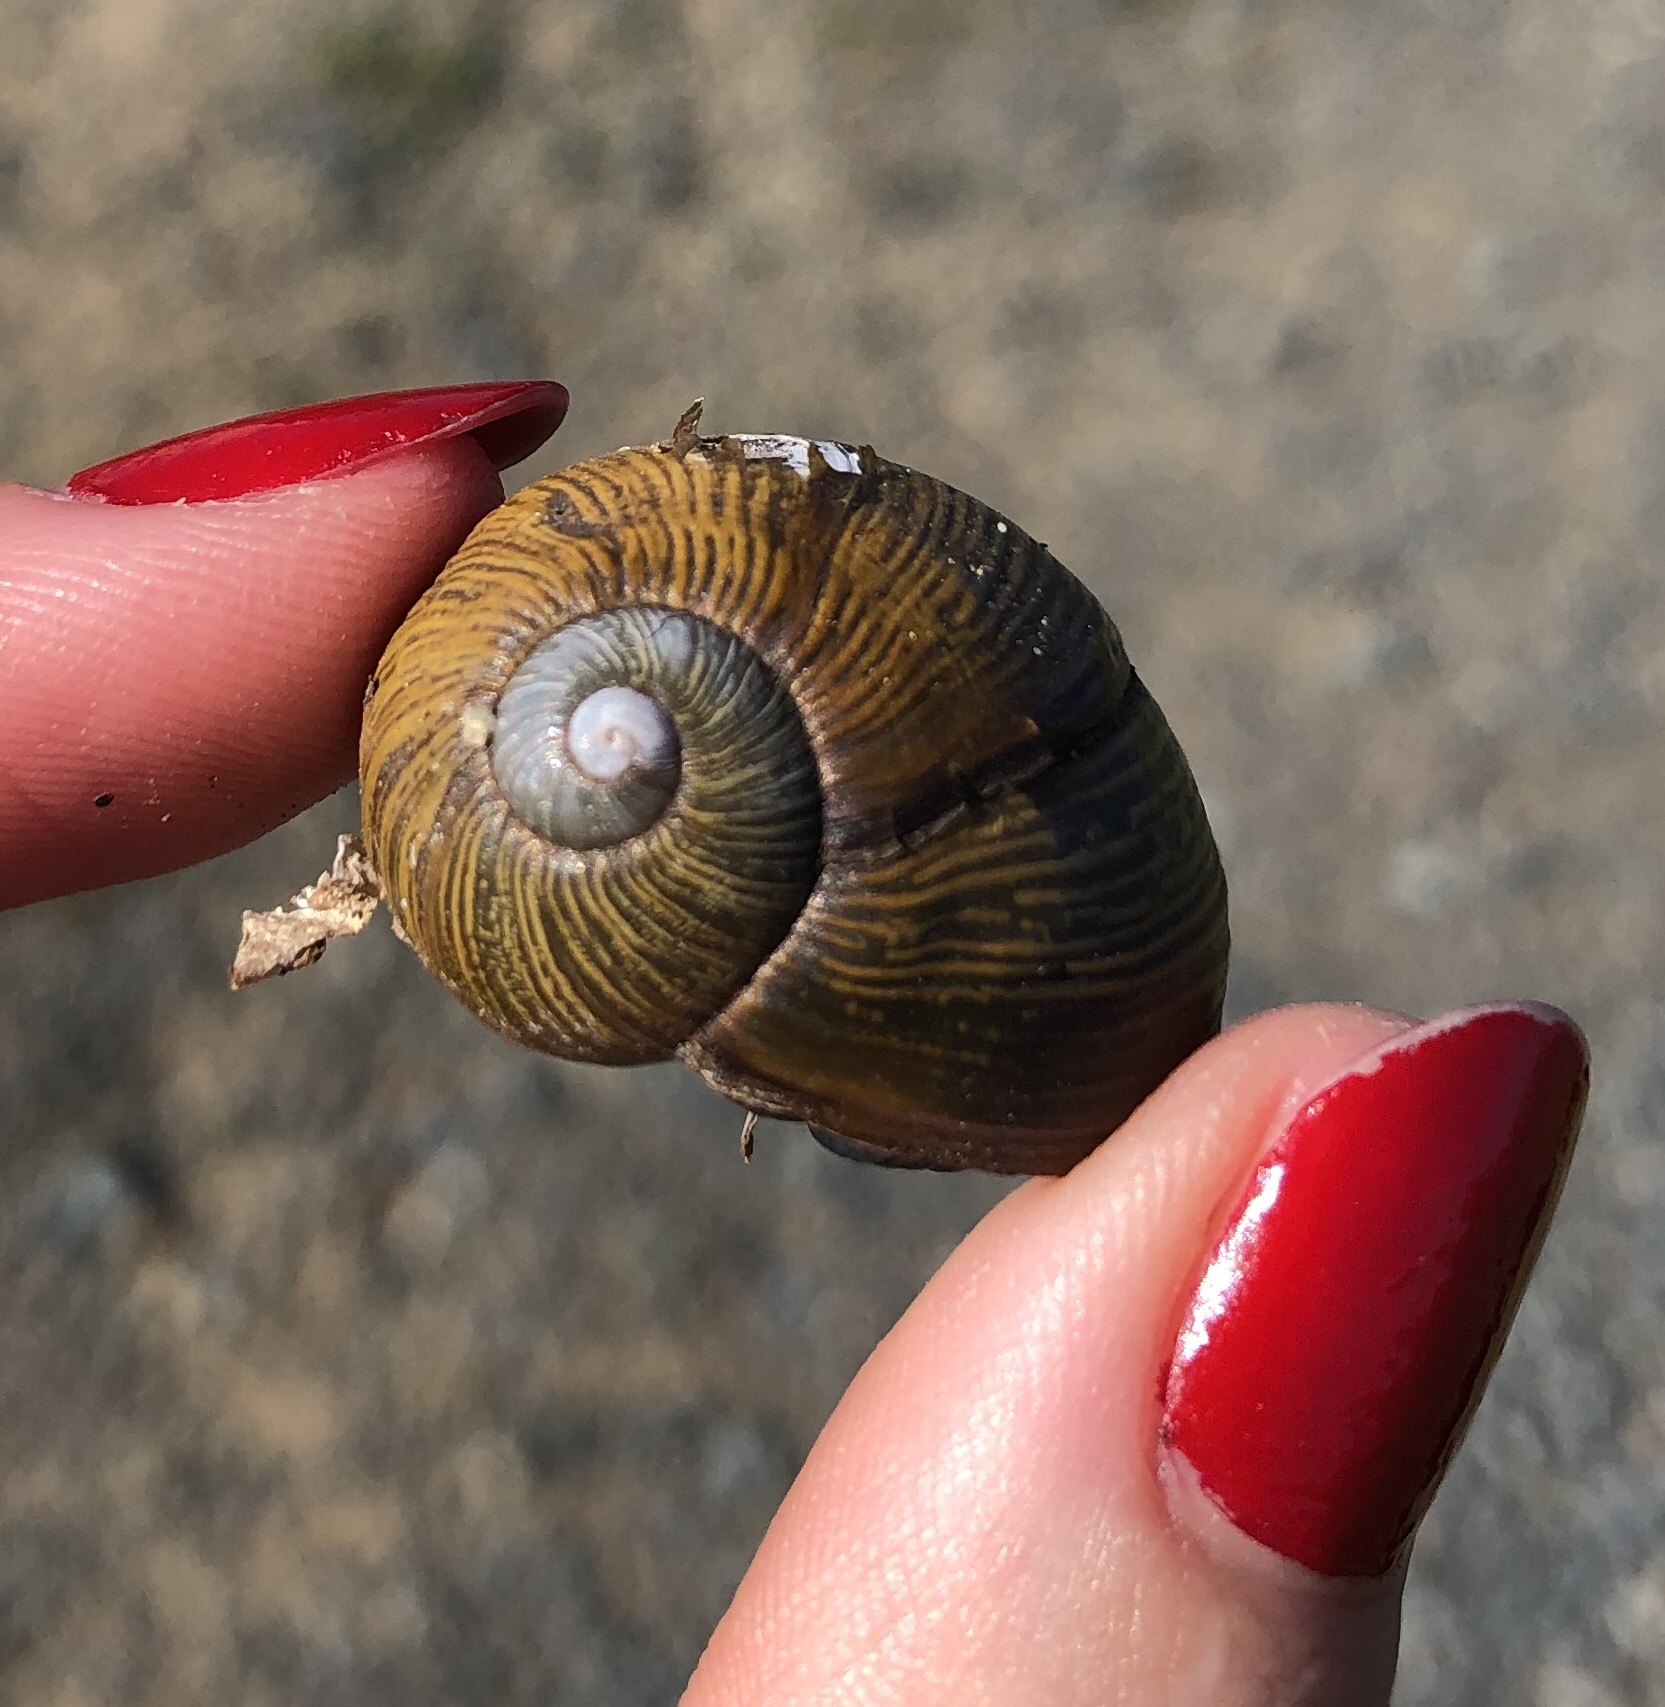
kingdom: Animalia
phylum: Mollusca
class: Gastropoda
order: Stylommatophora
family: Helicidae
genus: Cantareus
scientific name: Cantareus apertus
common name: Green gardensnail
